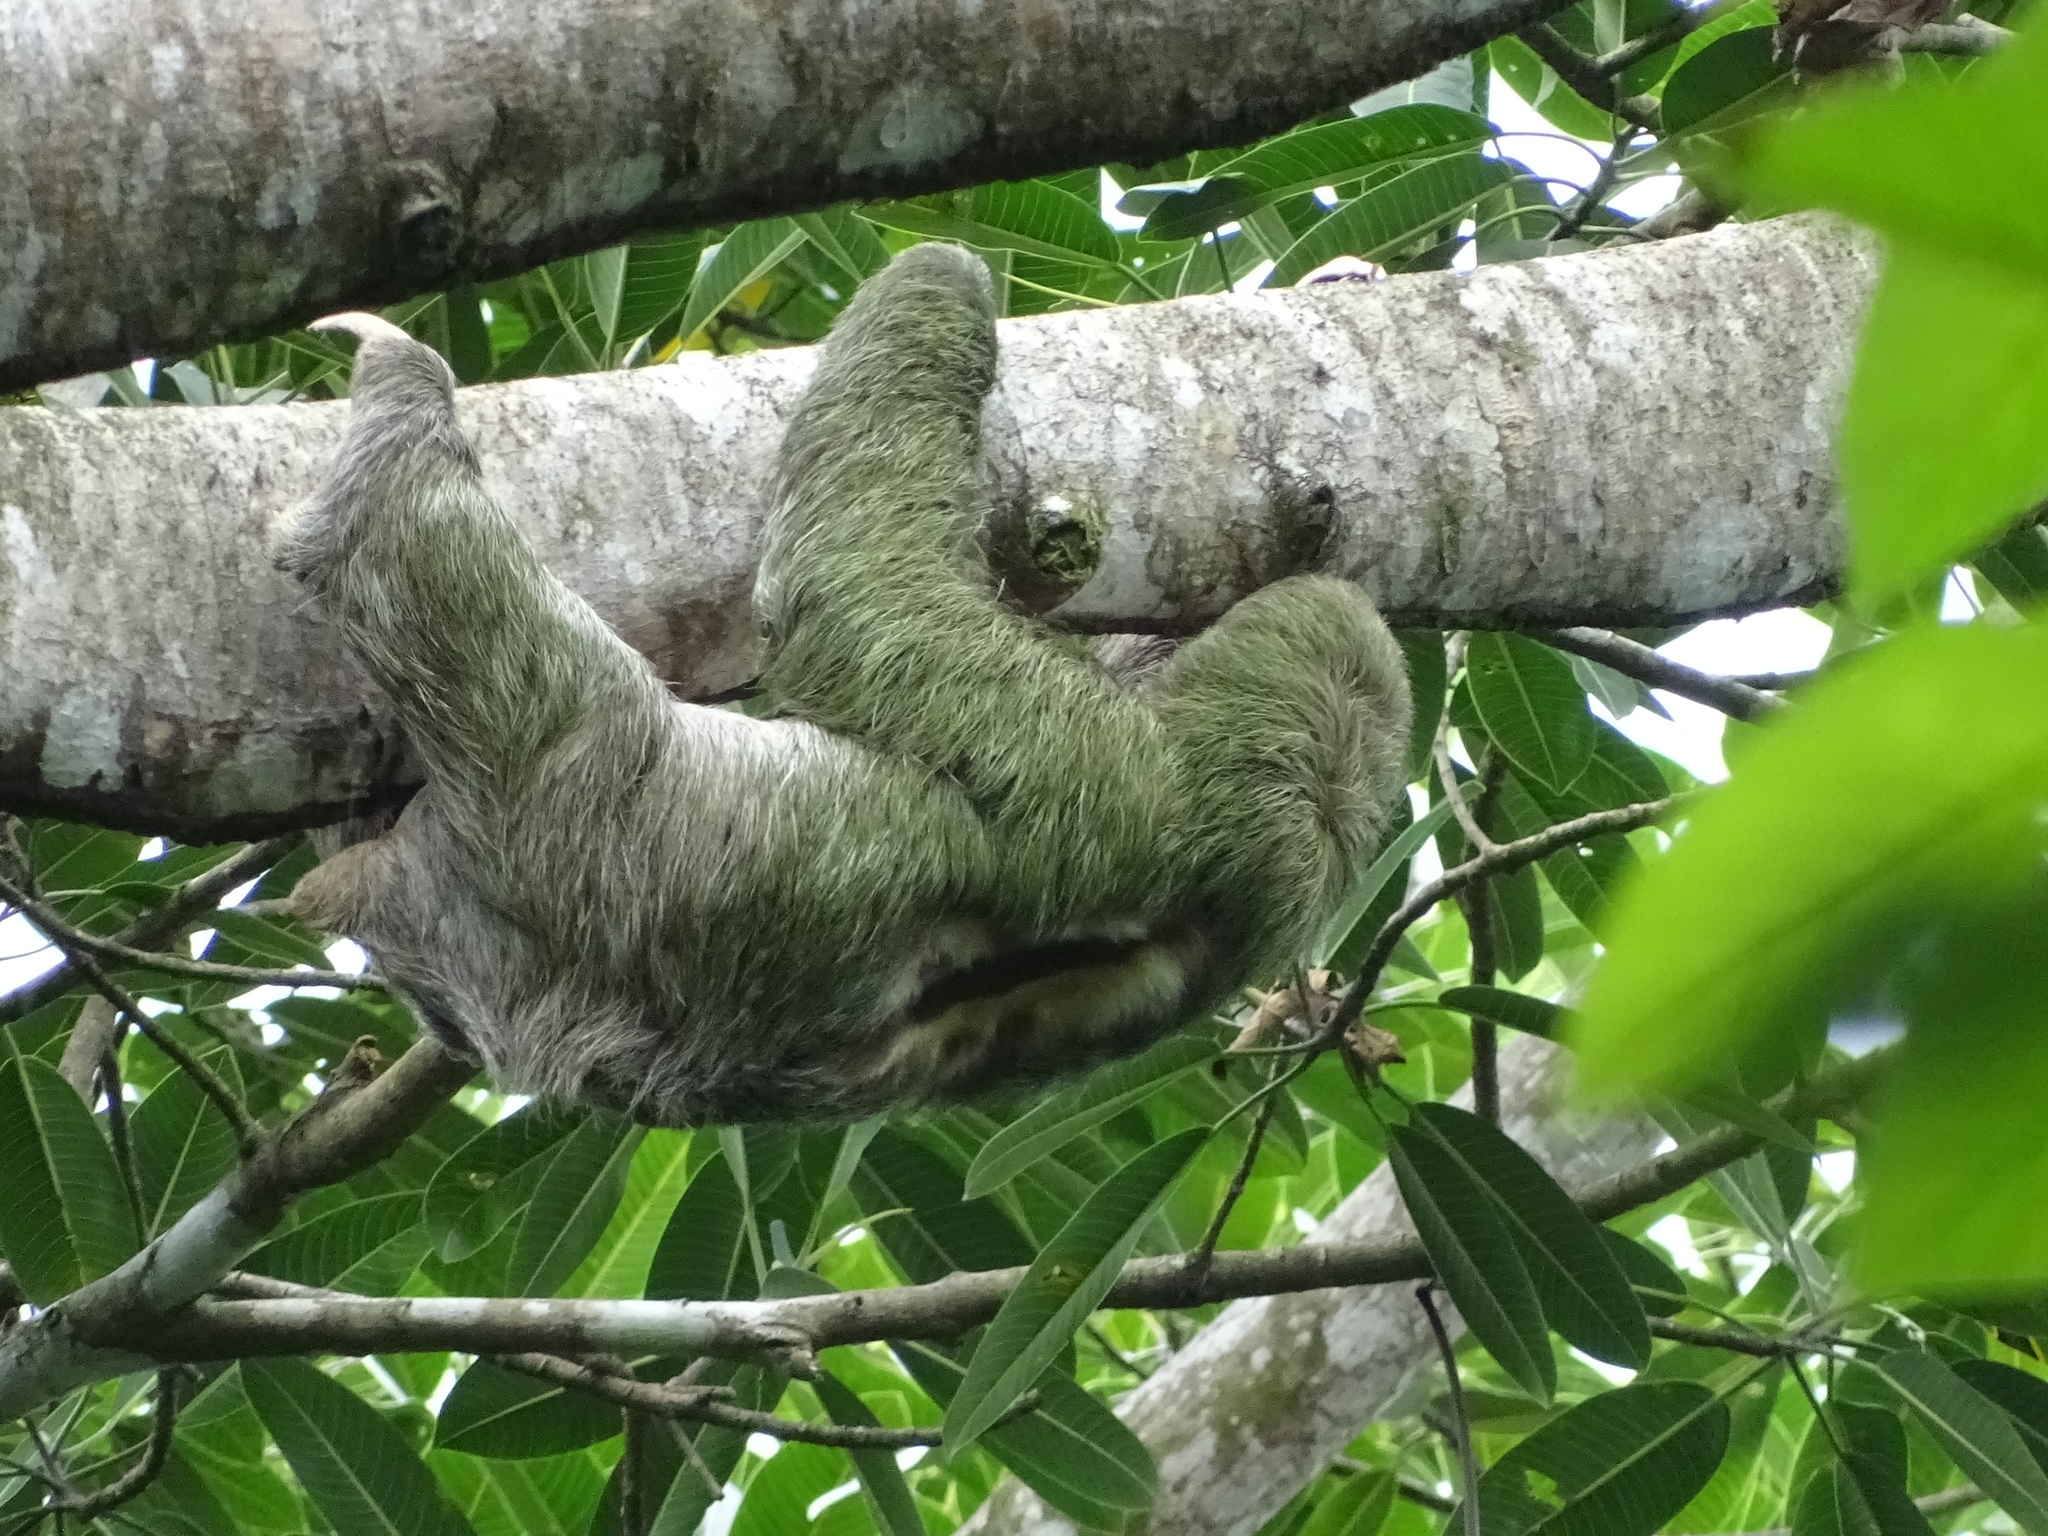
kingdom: Animalia
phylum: Chordata
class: Mammalia
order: Pilosa
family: Bradypodidae
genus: Bradypus
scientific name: Bradypus variegatus
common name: Brown-throated three-toed sloth
